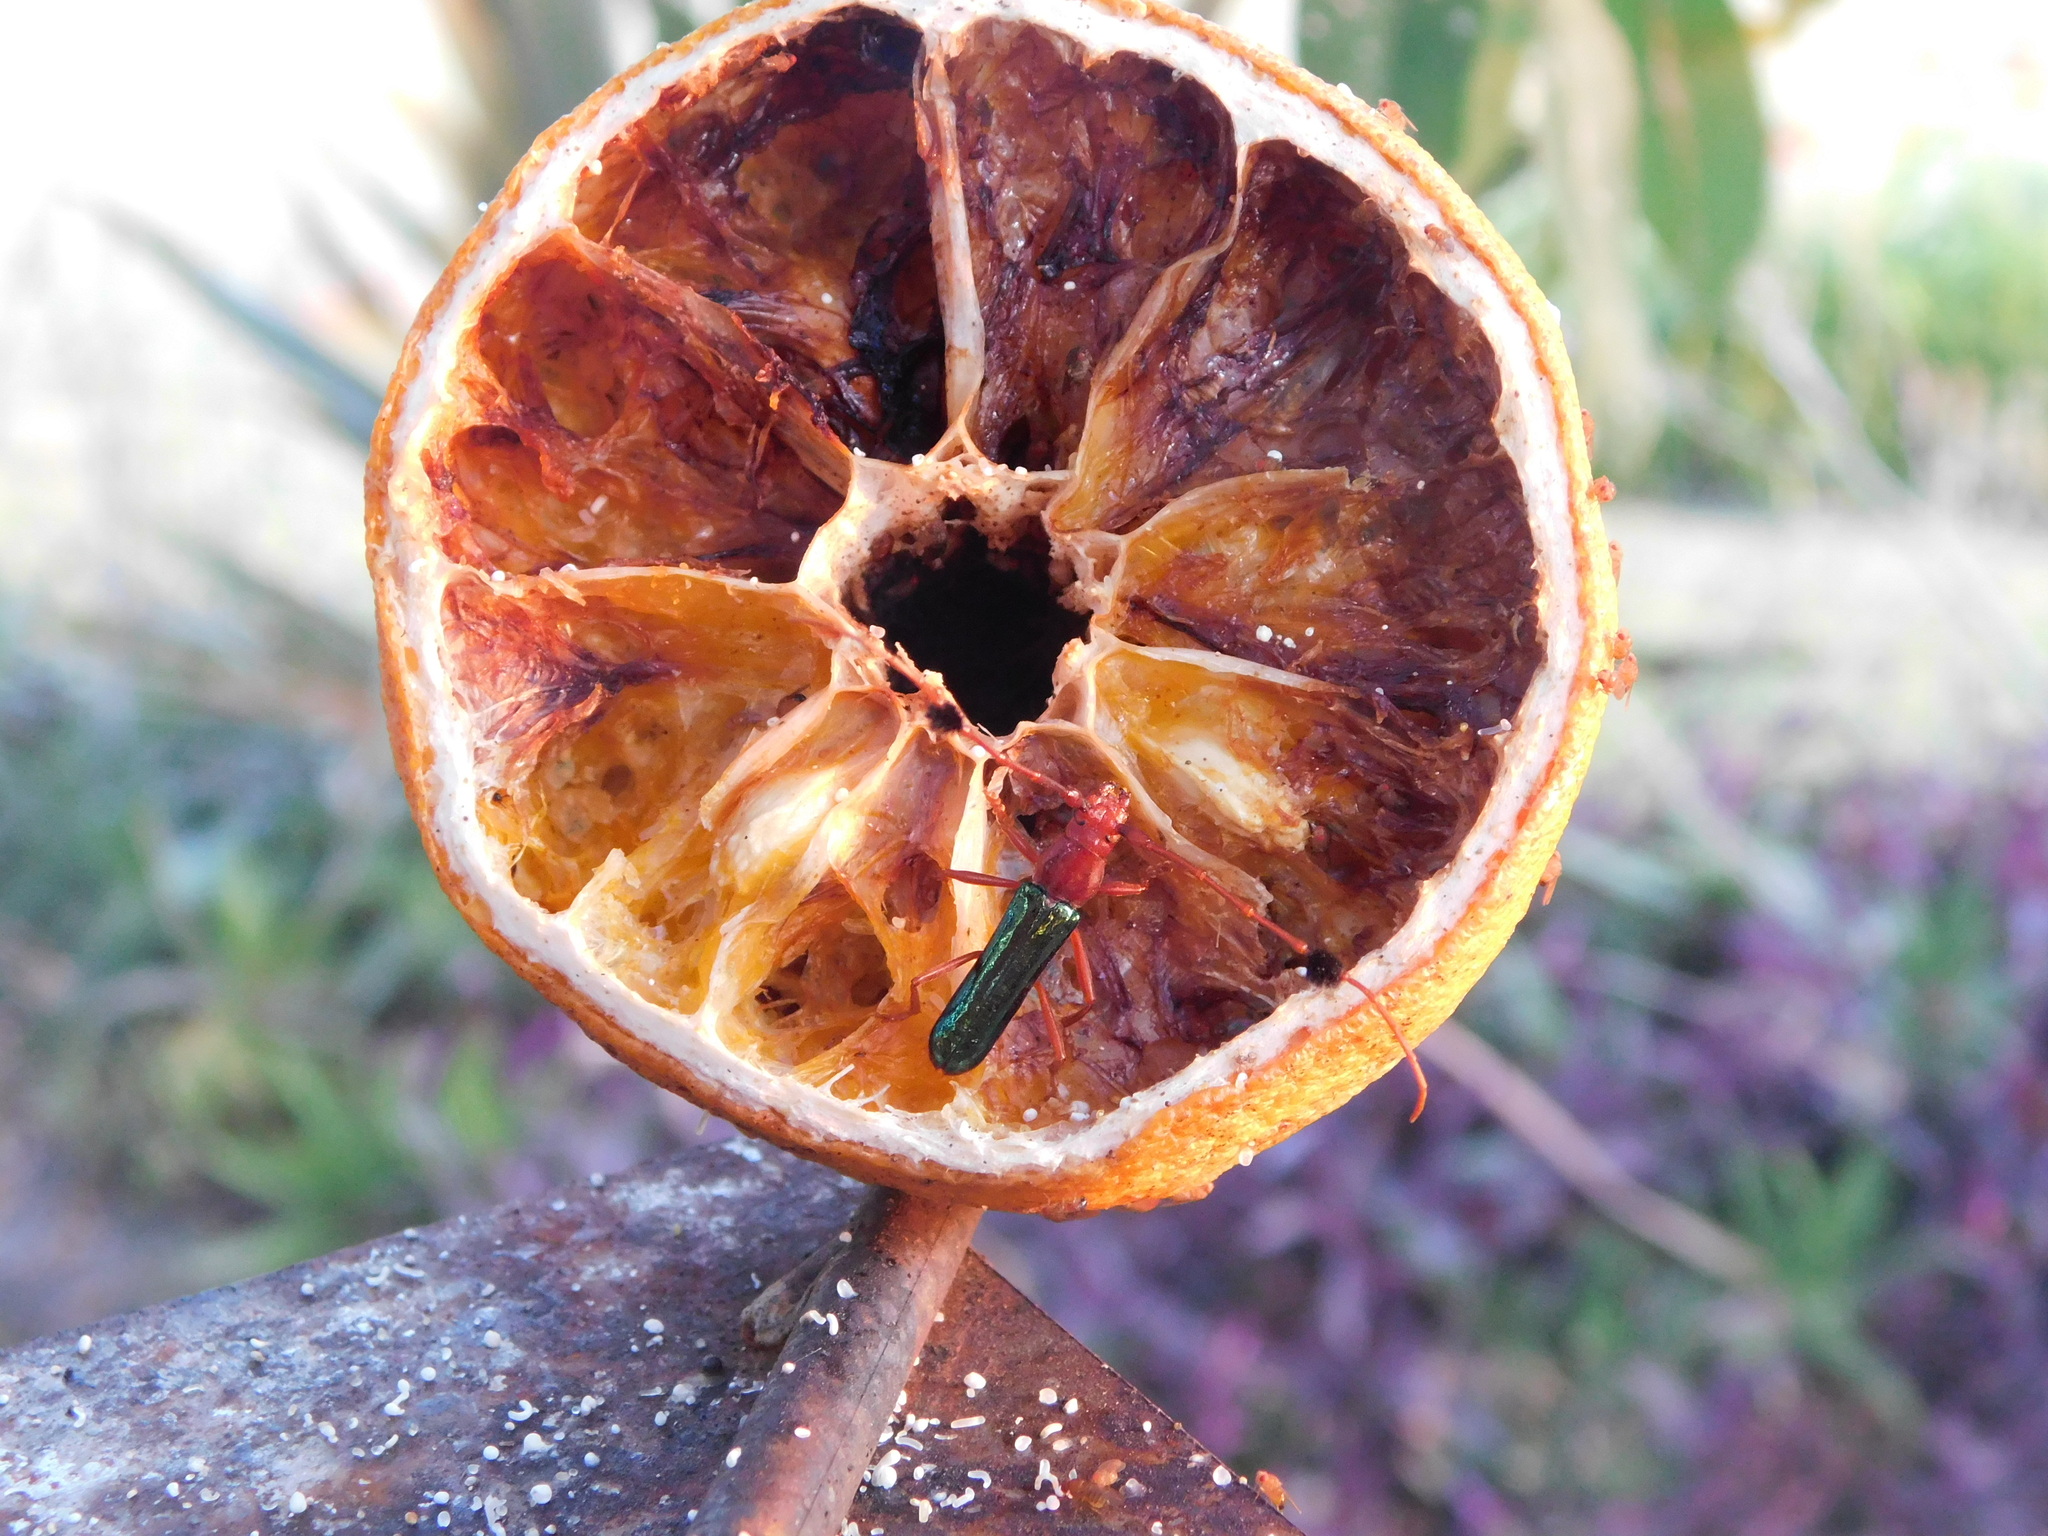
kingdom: Animalia
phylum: Arthropoda
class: Insecta
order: Coleoptera
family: Cerambycidae
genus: Compsocerus
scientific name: Compsocerus violaceus
